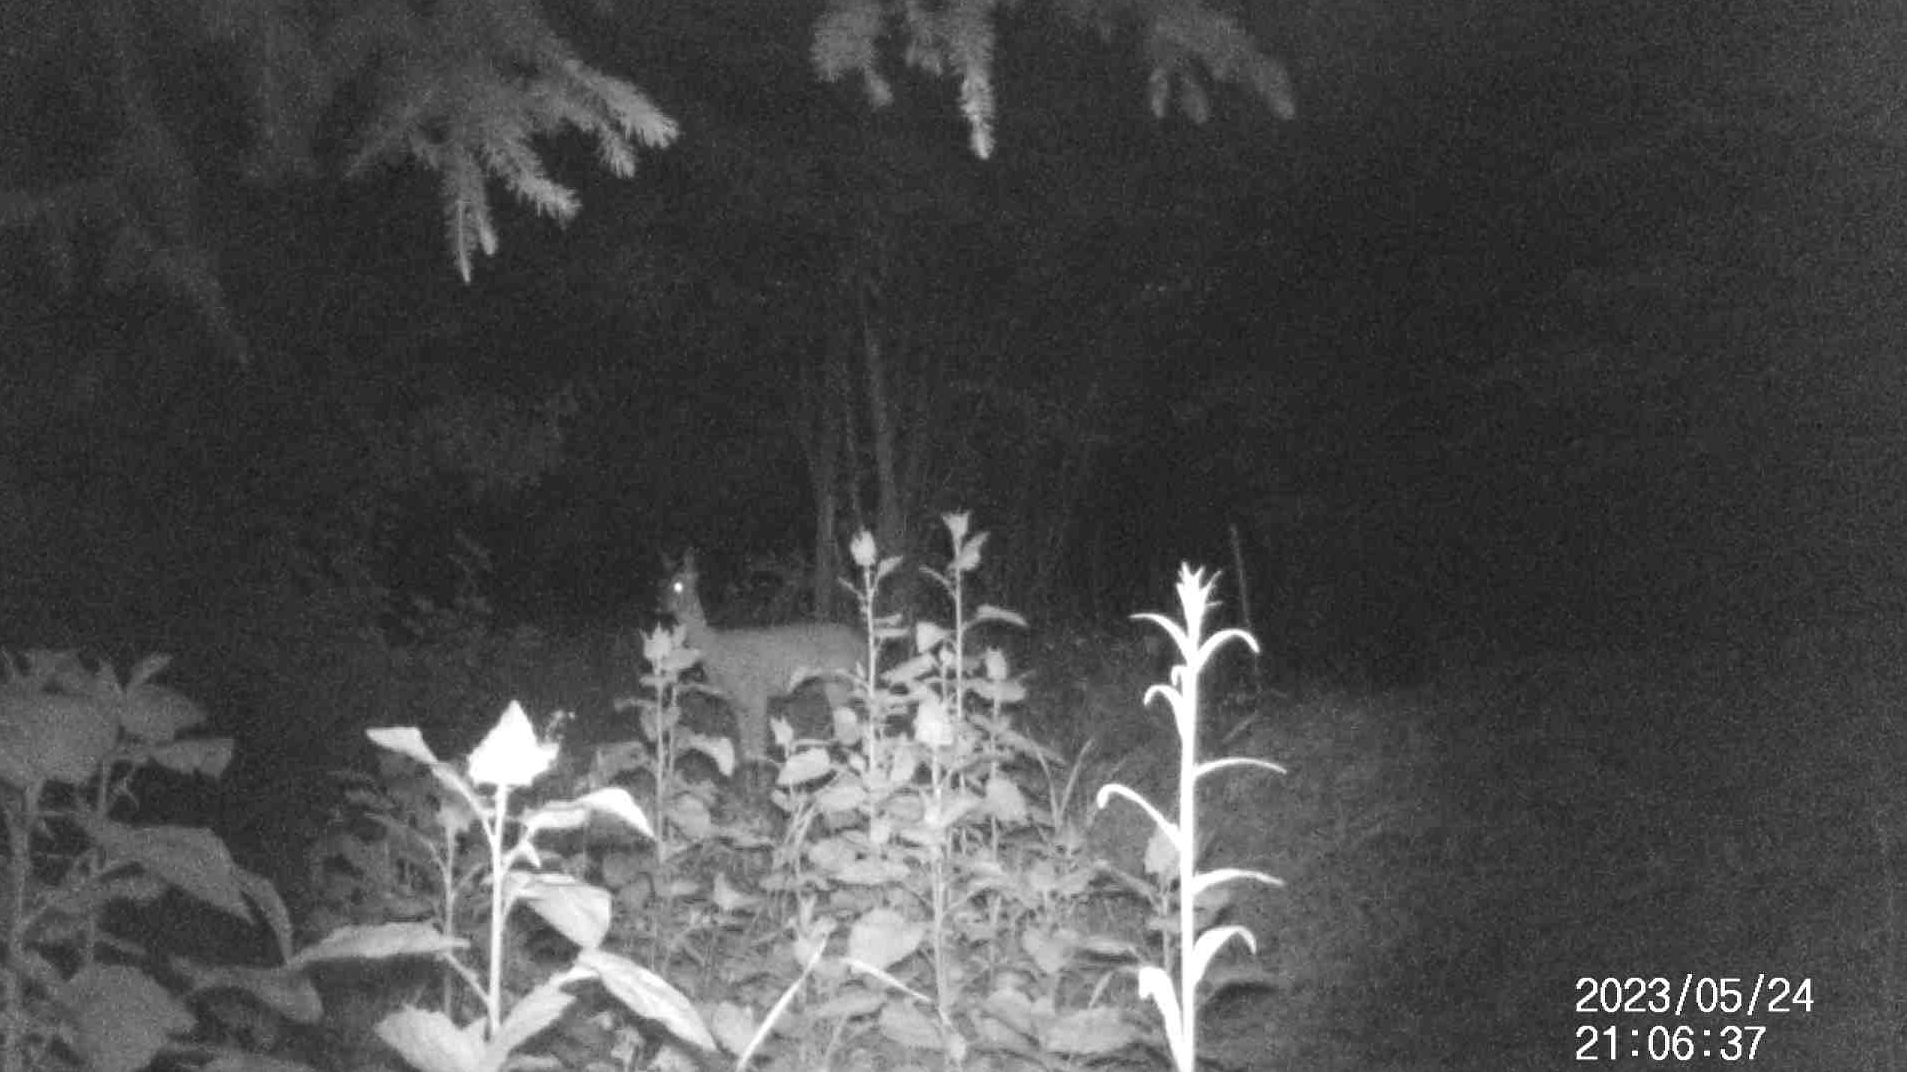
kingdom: Animalia
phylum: Chordata
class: Mammalia
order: Artiodactyla
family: Cervidae
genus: Capreolus
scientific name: Capreolus capreolus
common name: Western roe deer
